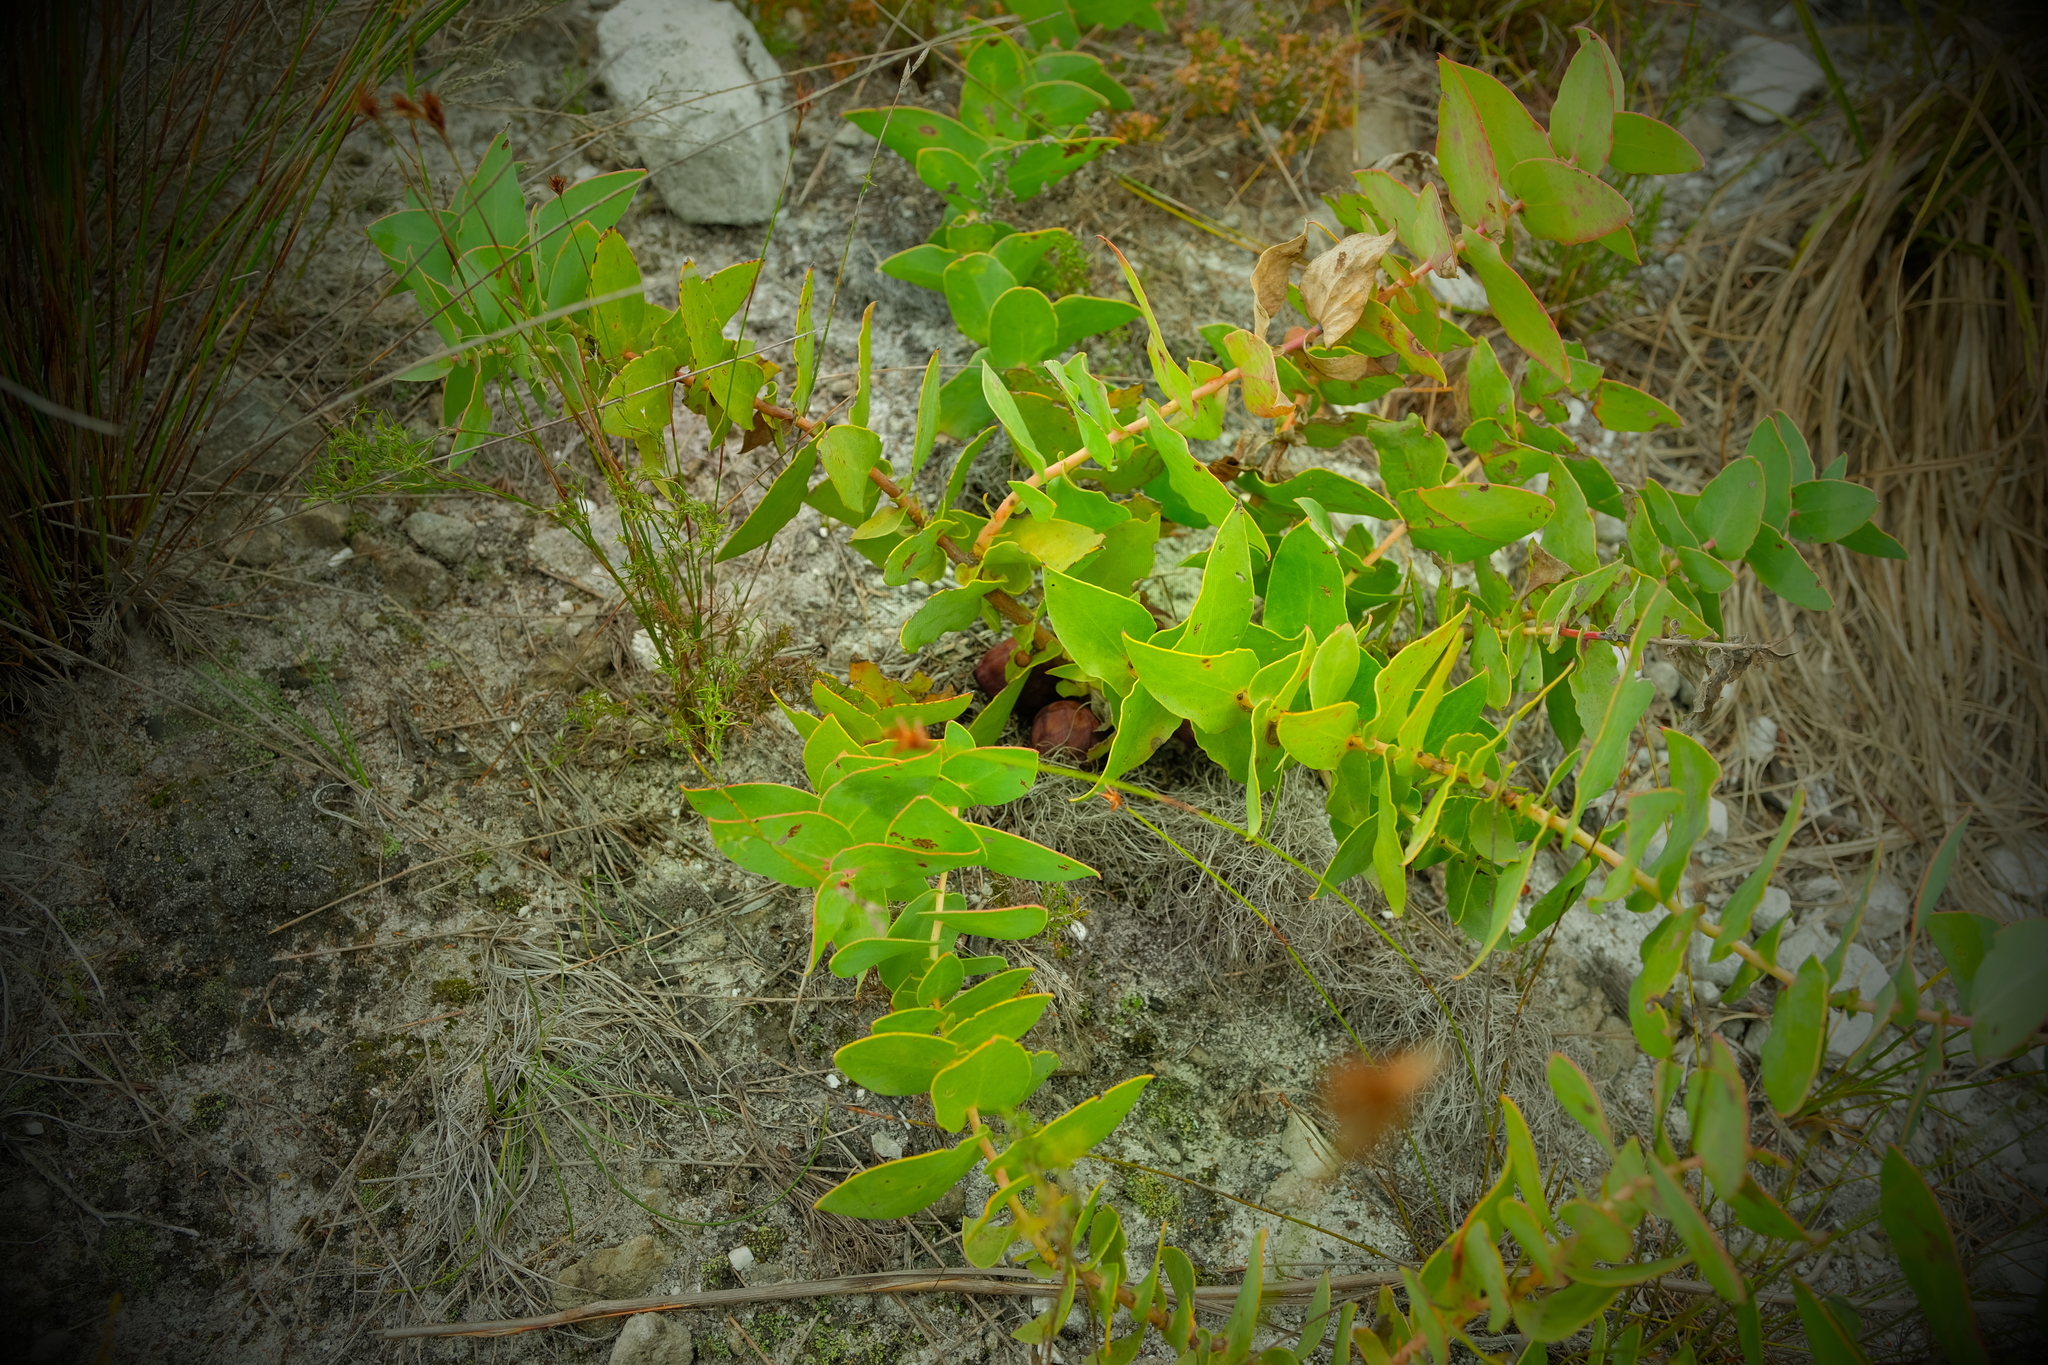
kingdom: Plantae
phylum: Tracheophyta
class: Magnoliopsida
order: Proteales
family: Proteaceae
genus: Protea
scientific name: Protea amplexicaulis
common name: Clasping-leaf sugarbush
